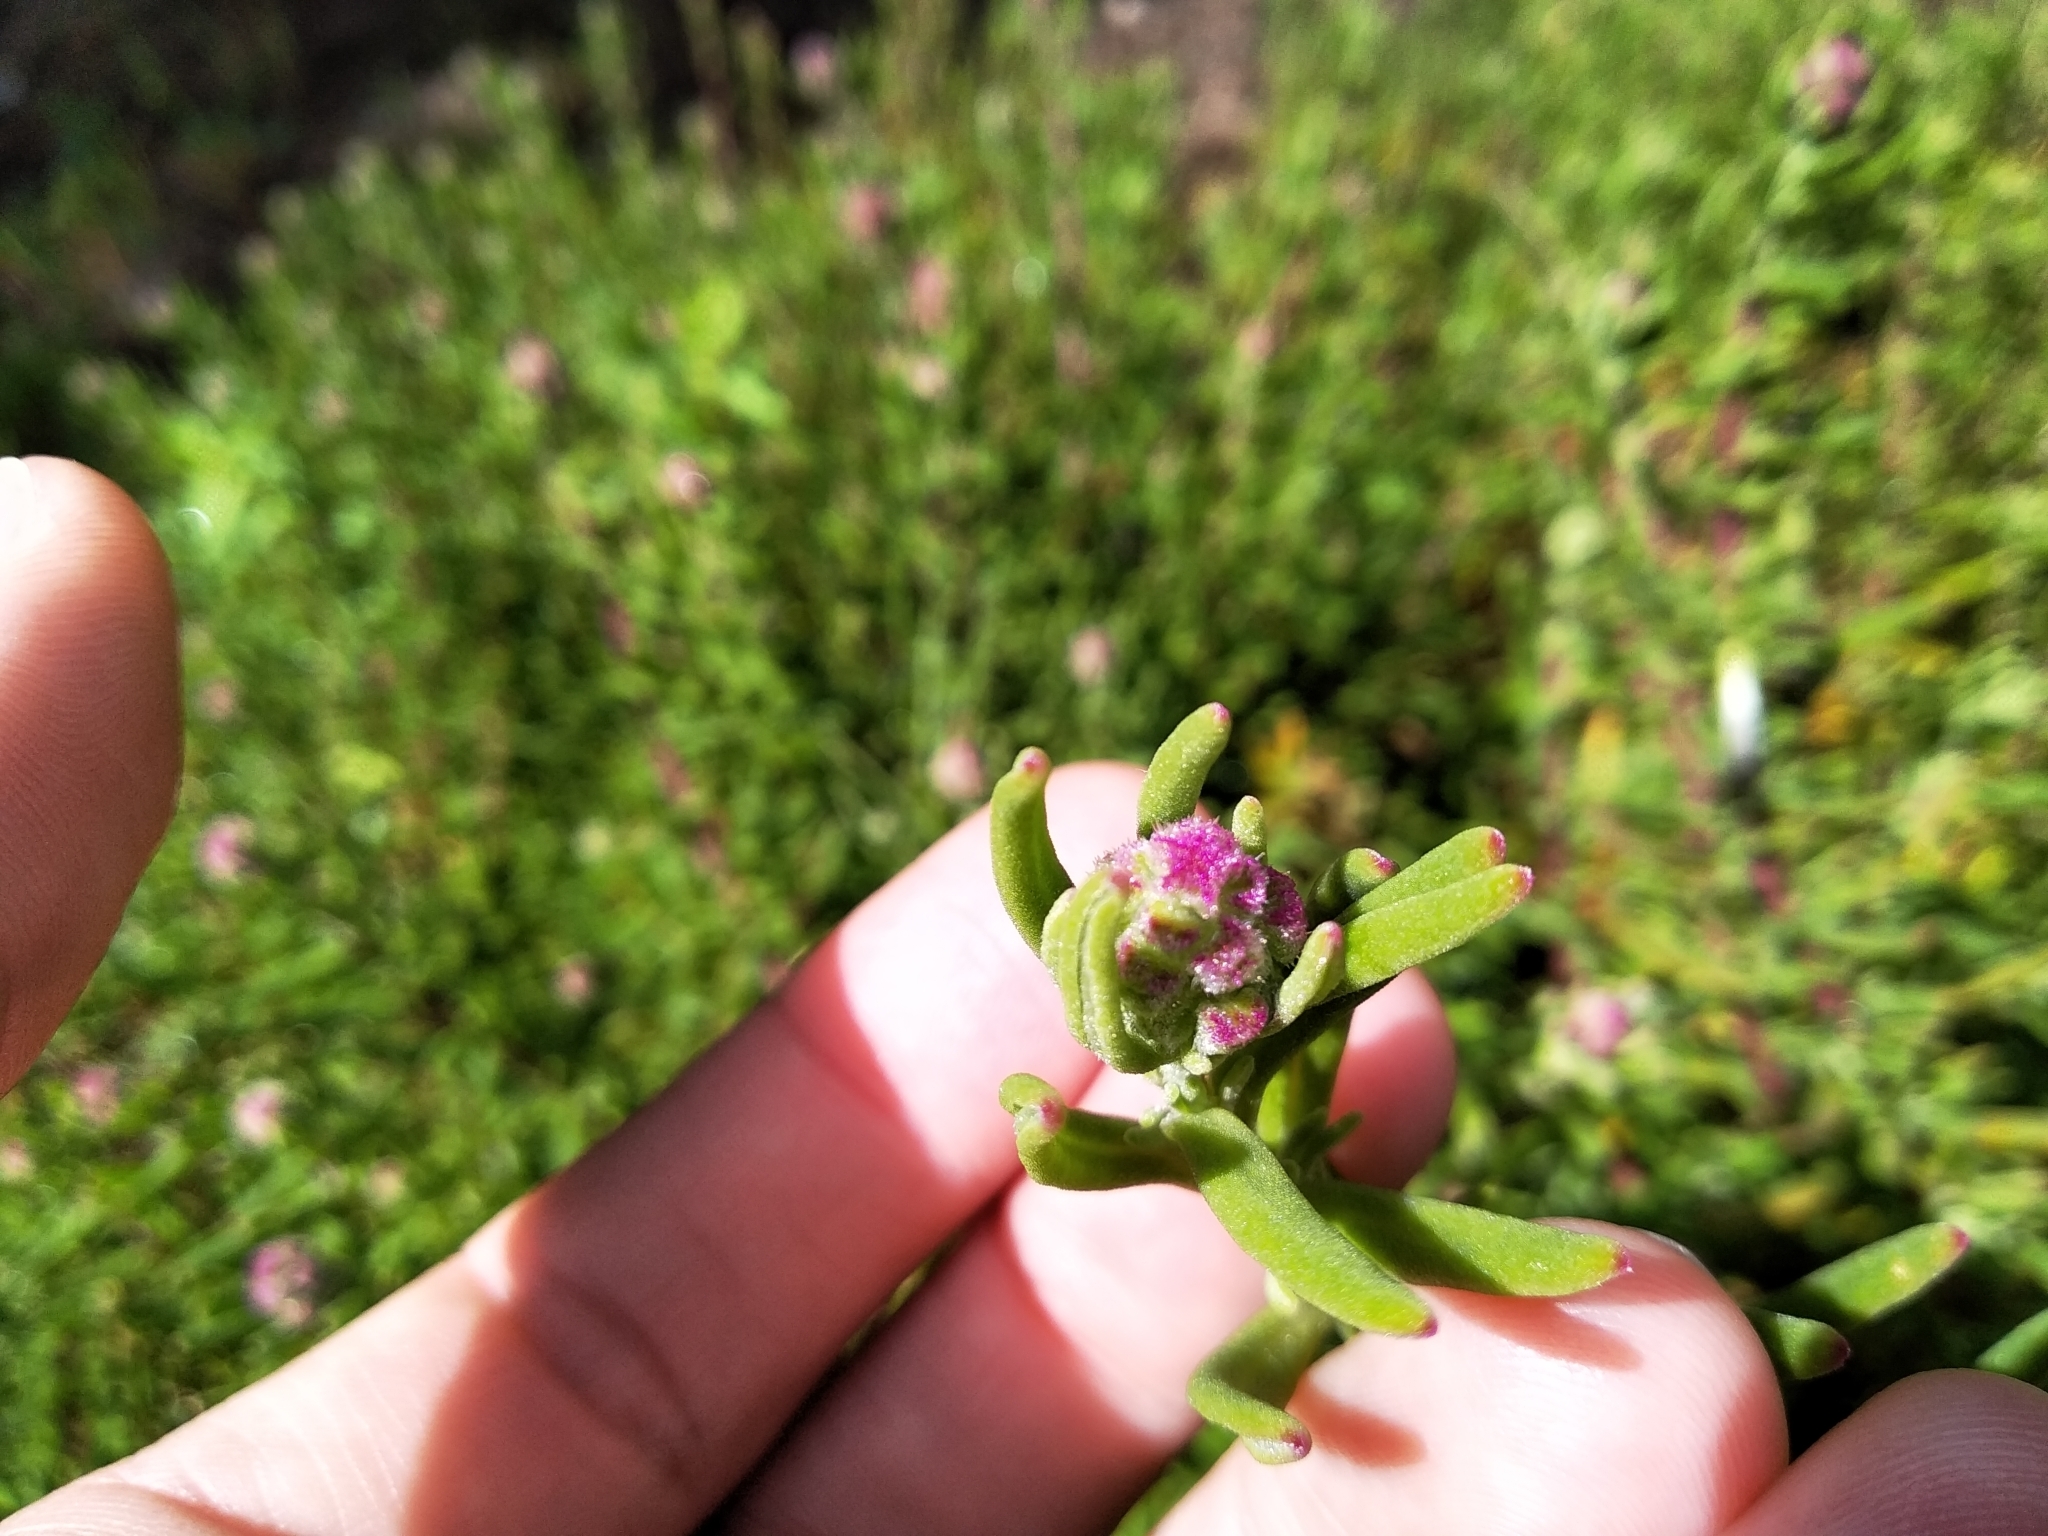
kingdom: Plantae
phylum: Tracheophyta
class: Magnoliopsida
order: Caryophyllales
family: Aizoaceae
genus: Tetragonia
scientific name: Tetragonia fruticosa
